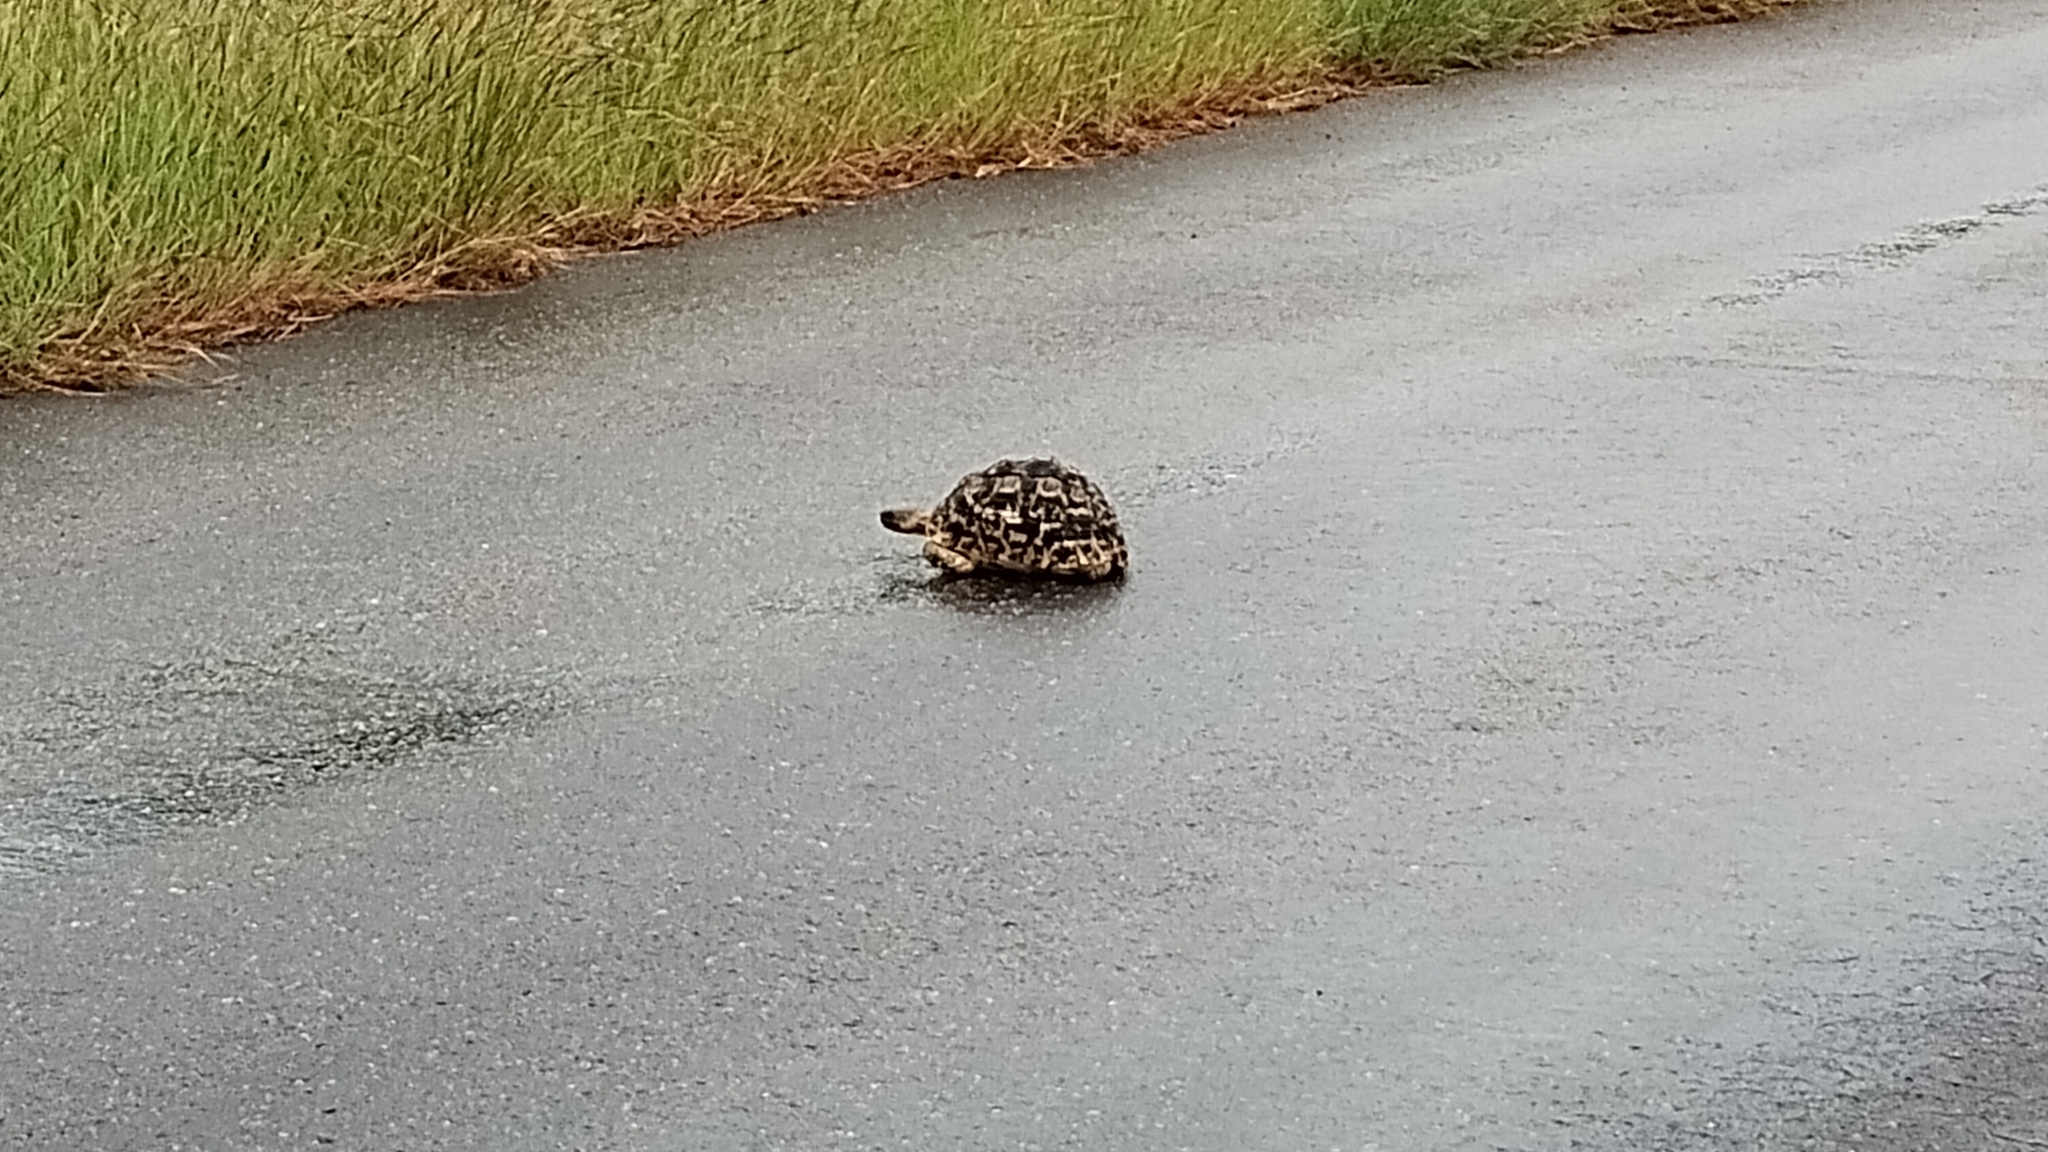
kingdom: Animalia
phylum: Chordata
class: Testudines
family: Testudinidae
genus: Stigmochelys
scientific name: Stigmochelys pardalis
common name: Leopard tortoise
